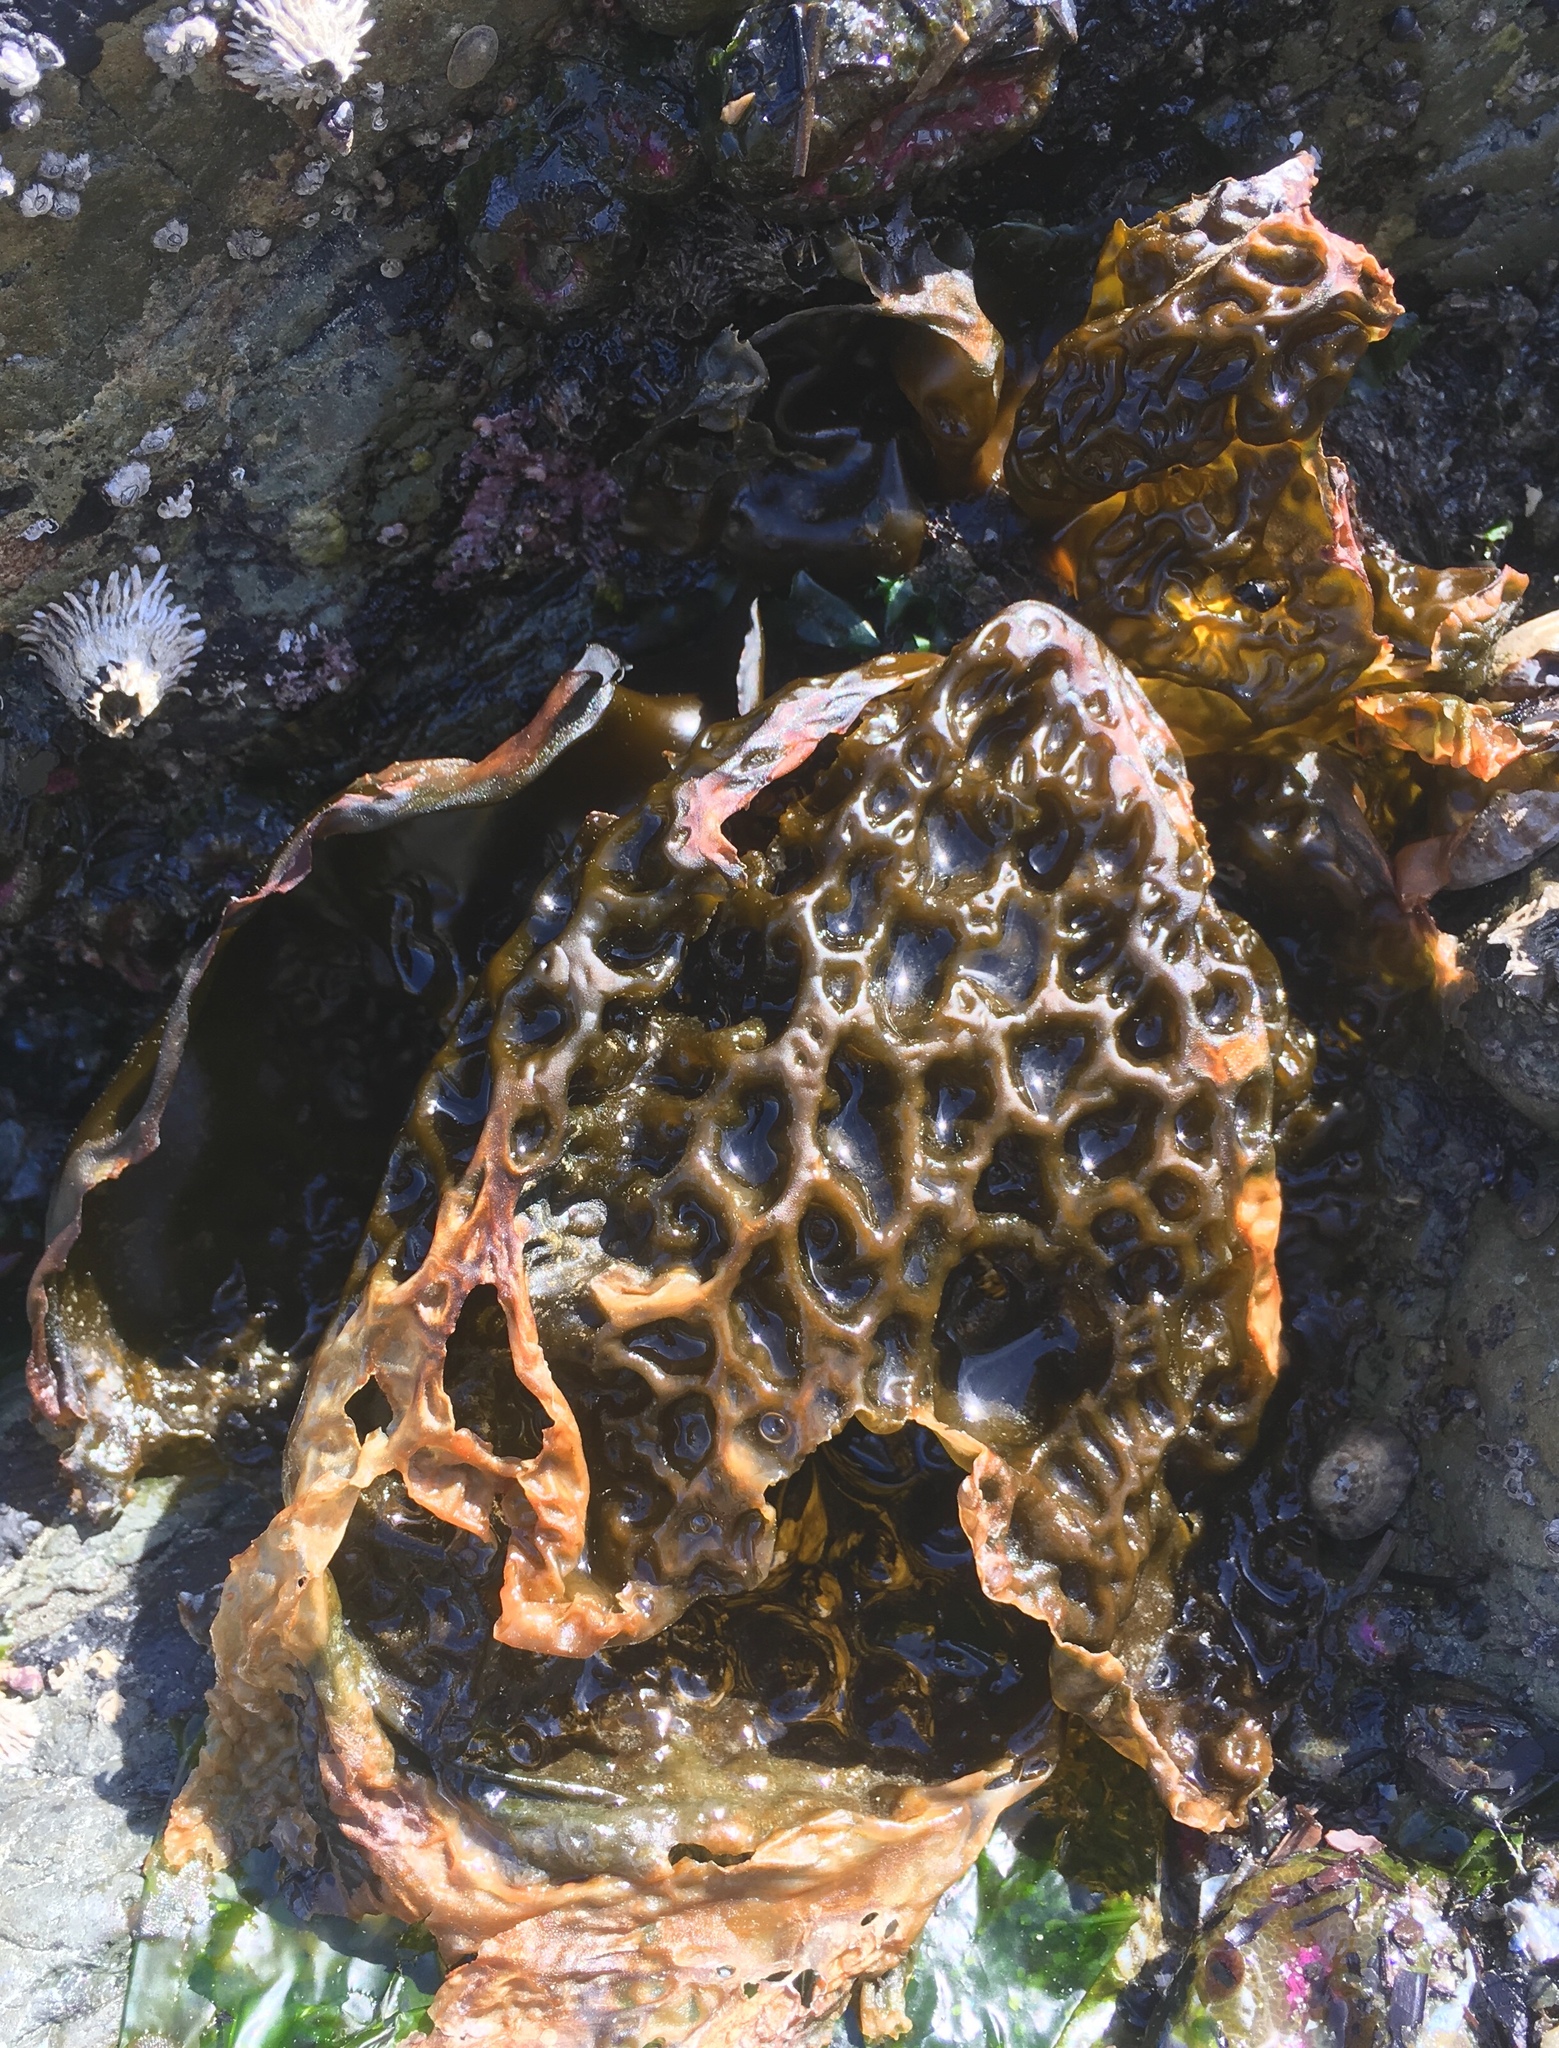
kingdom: Chromista
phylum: Ochrophyta
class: Phaeophyceae
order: Laminariales
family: Laminariaceae
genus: Hedophyllum
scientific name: Hedophyllum sessile
